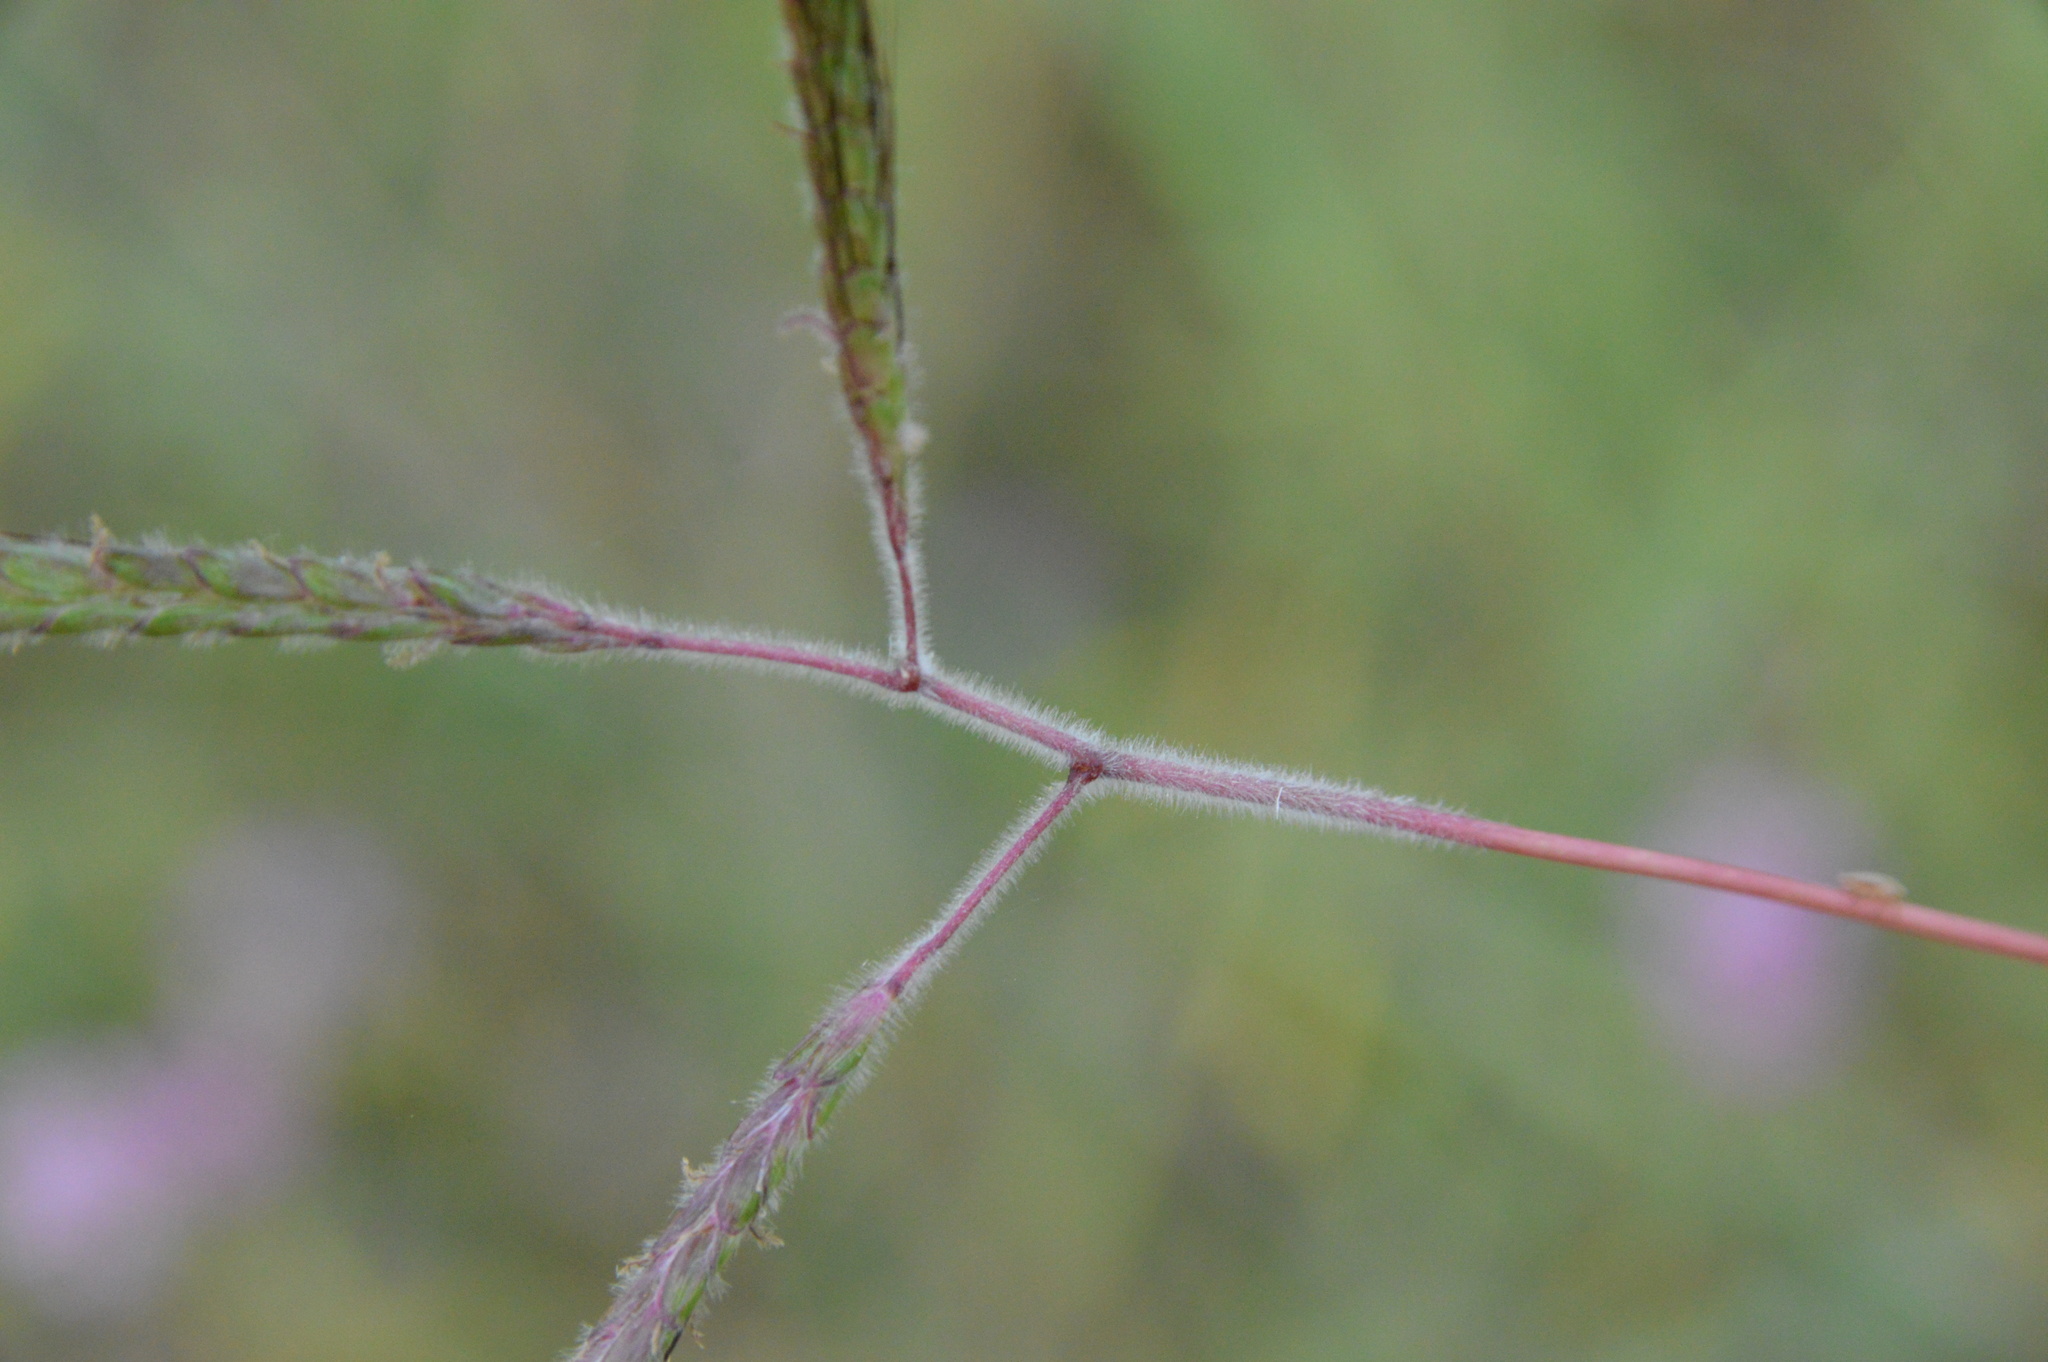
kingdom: Plantae
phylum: Tracheophyta
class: Liliopsida
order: Poales
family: Poaceae
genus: Dichanthium
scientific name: Dichanthium aristatum
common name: Angleton bluestem
